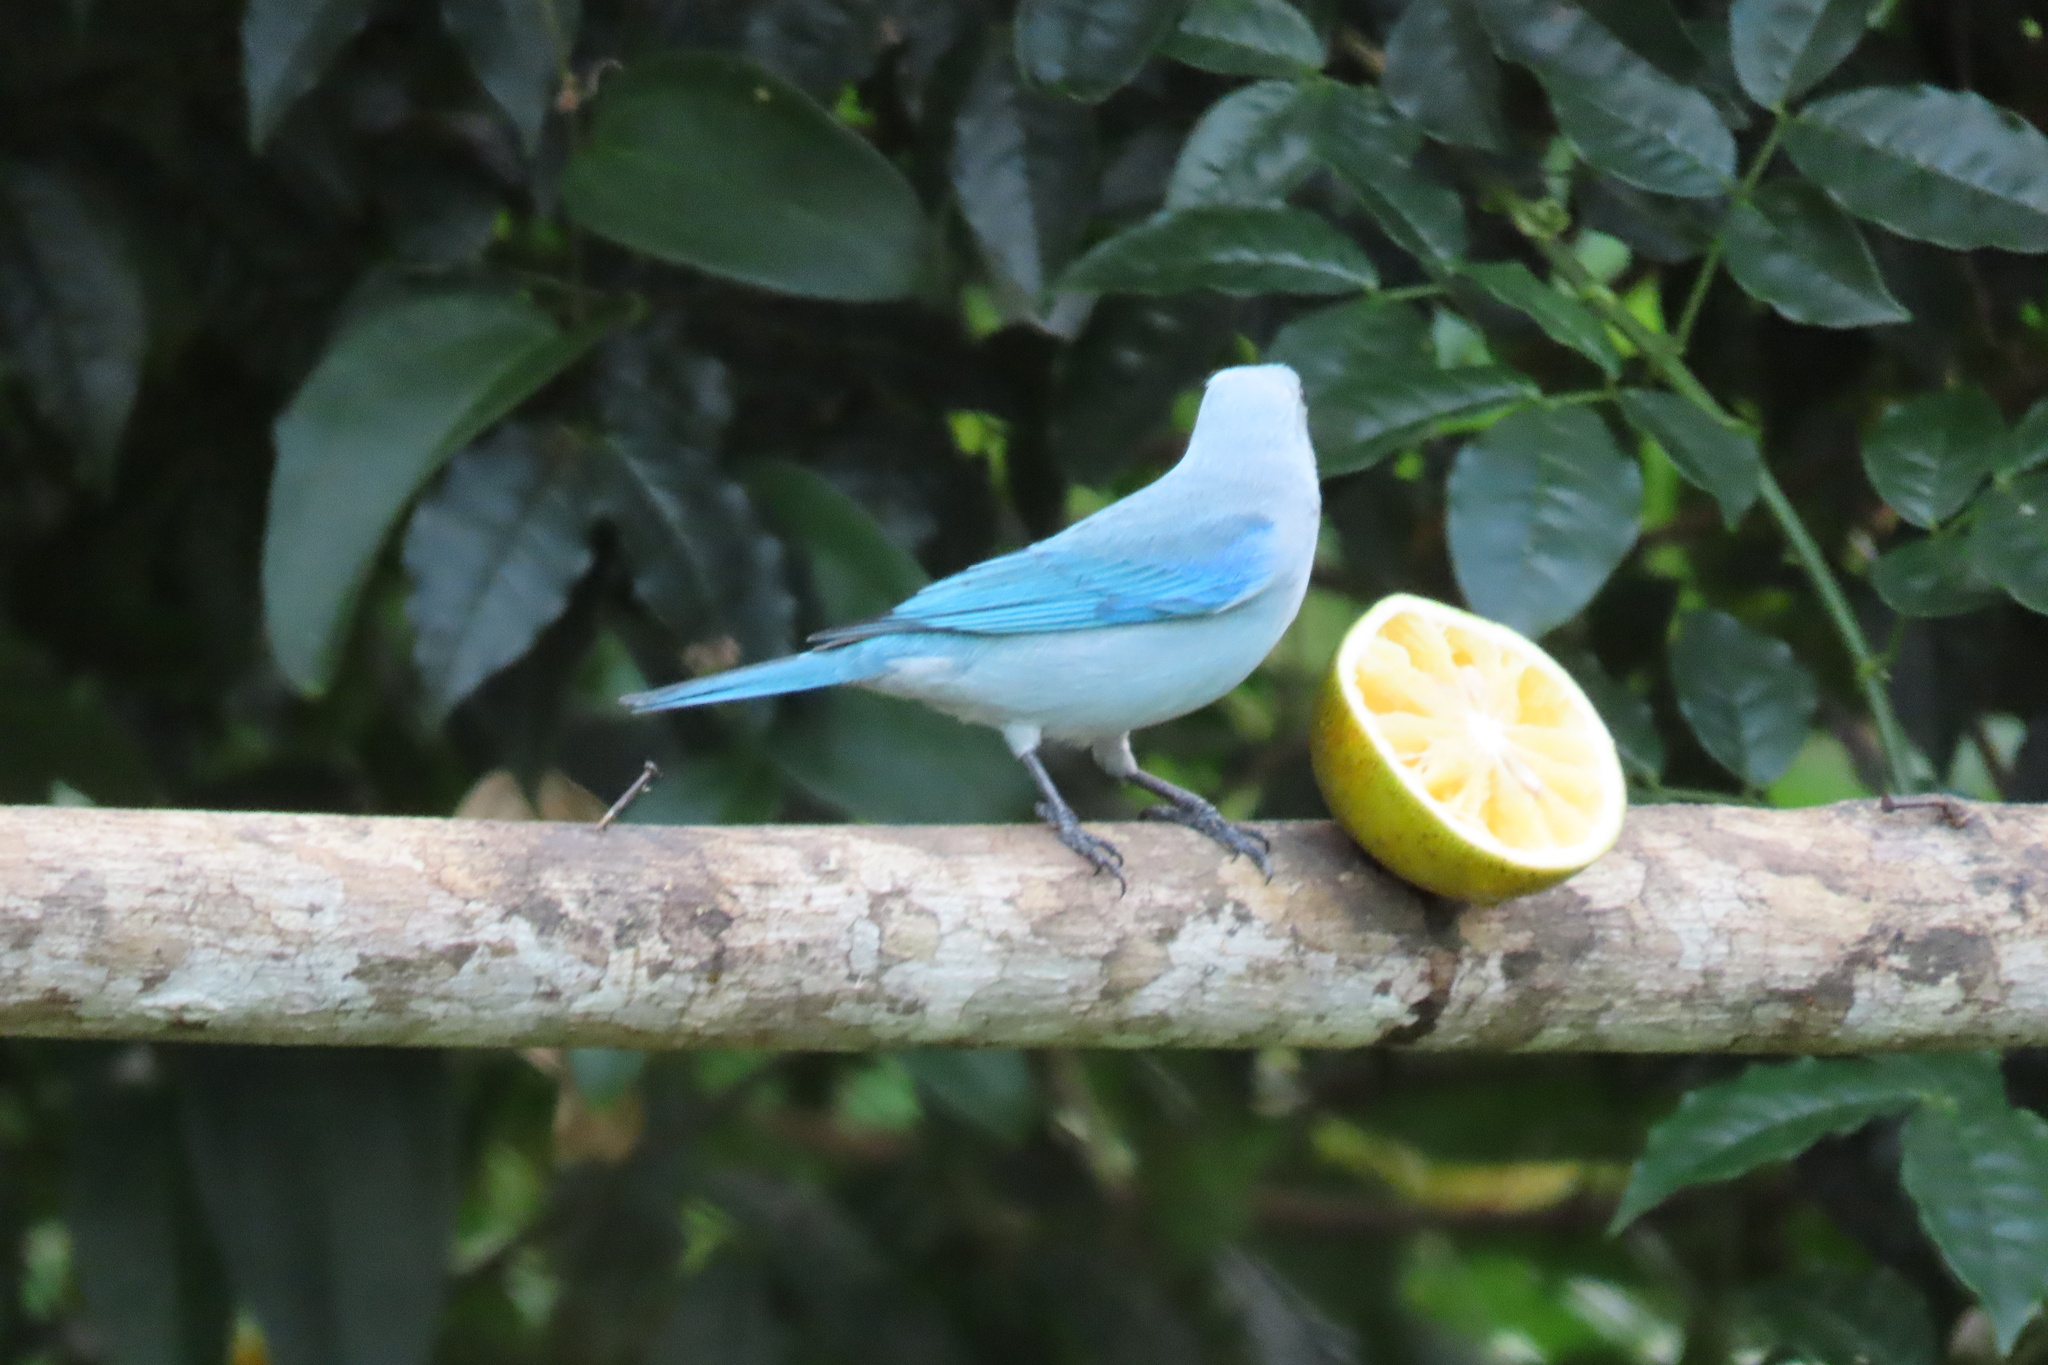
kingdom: Animalia
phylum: Chordata
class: Aves
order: Passeriformes
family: Thraupidae
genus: Thraupis
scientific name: Thraupis episcopus
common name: Blue-grey tanager
